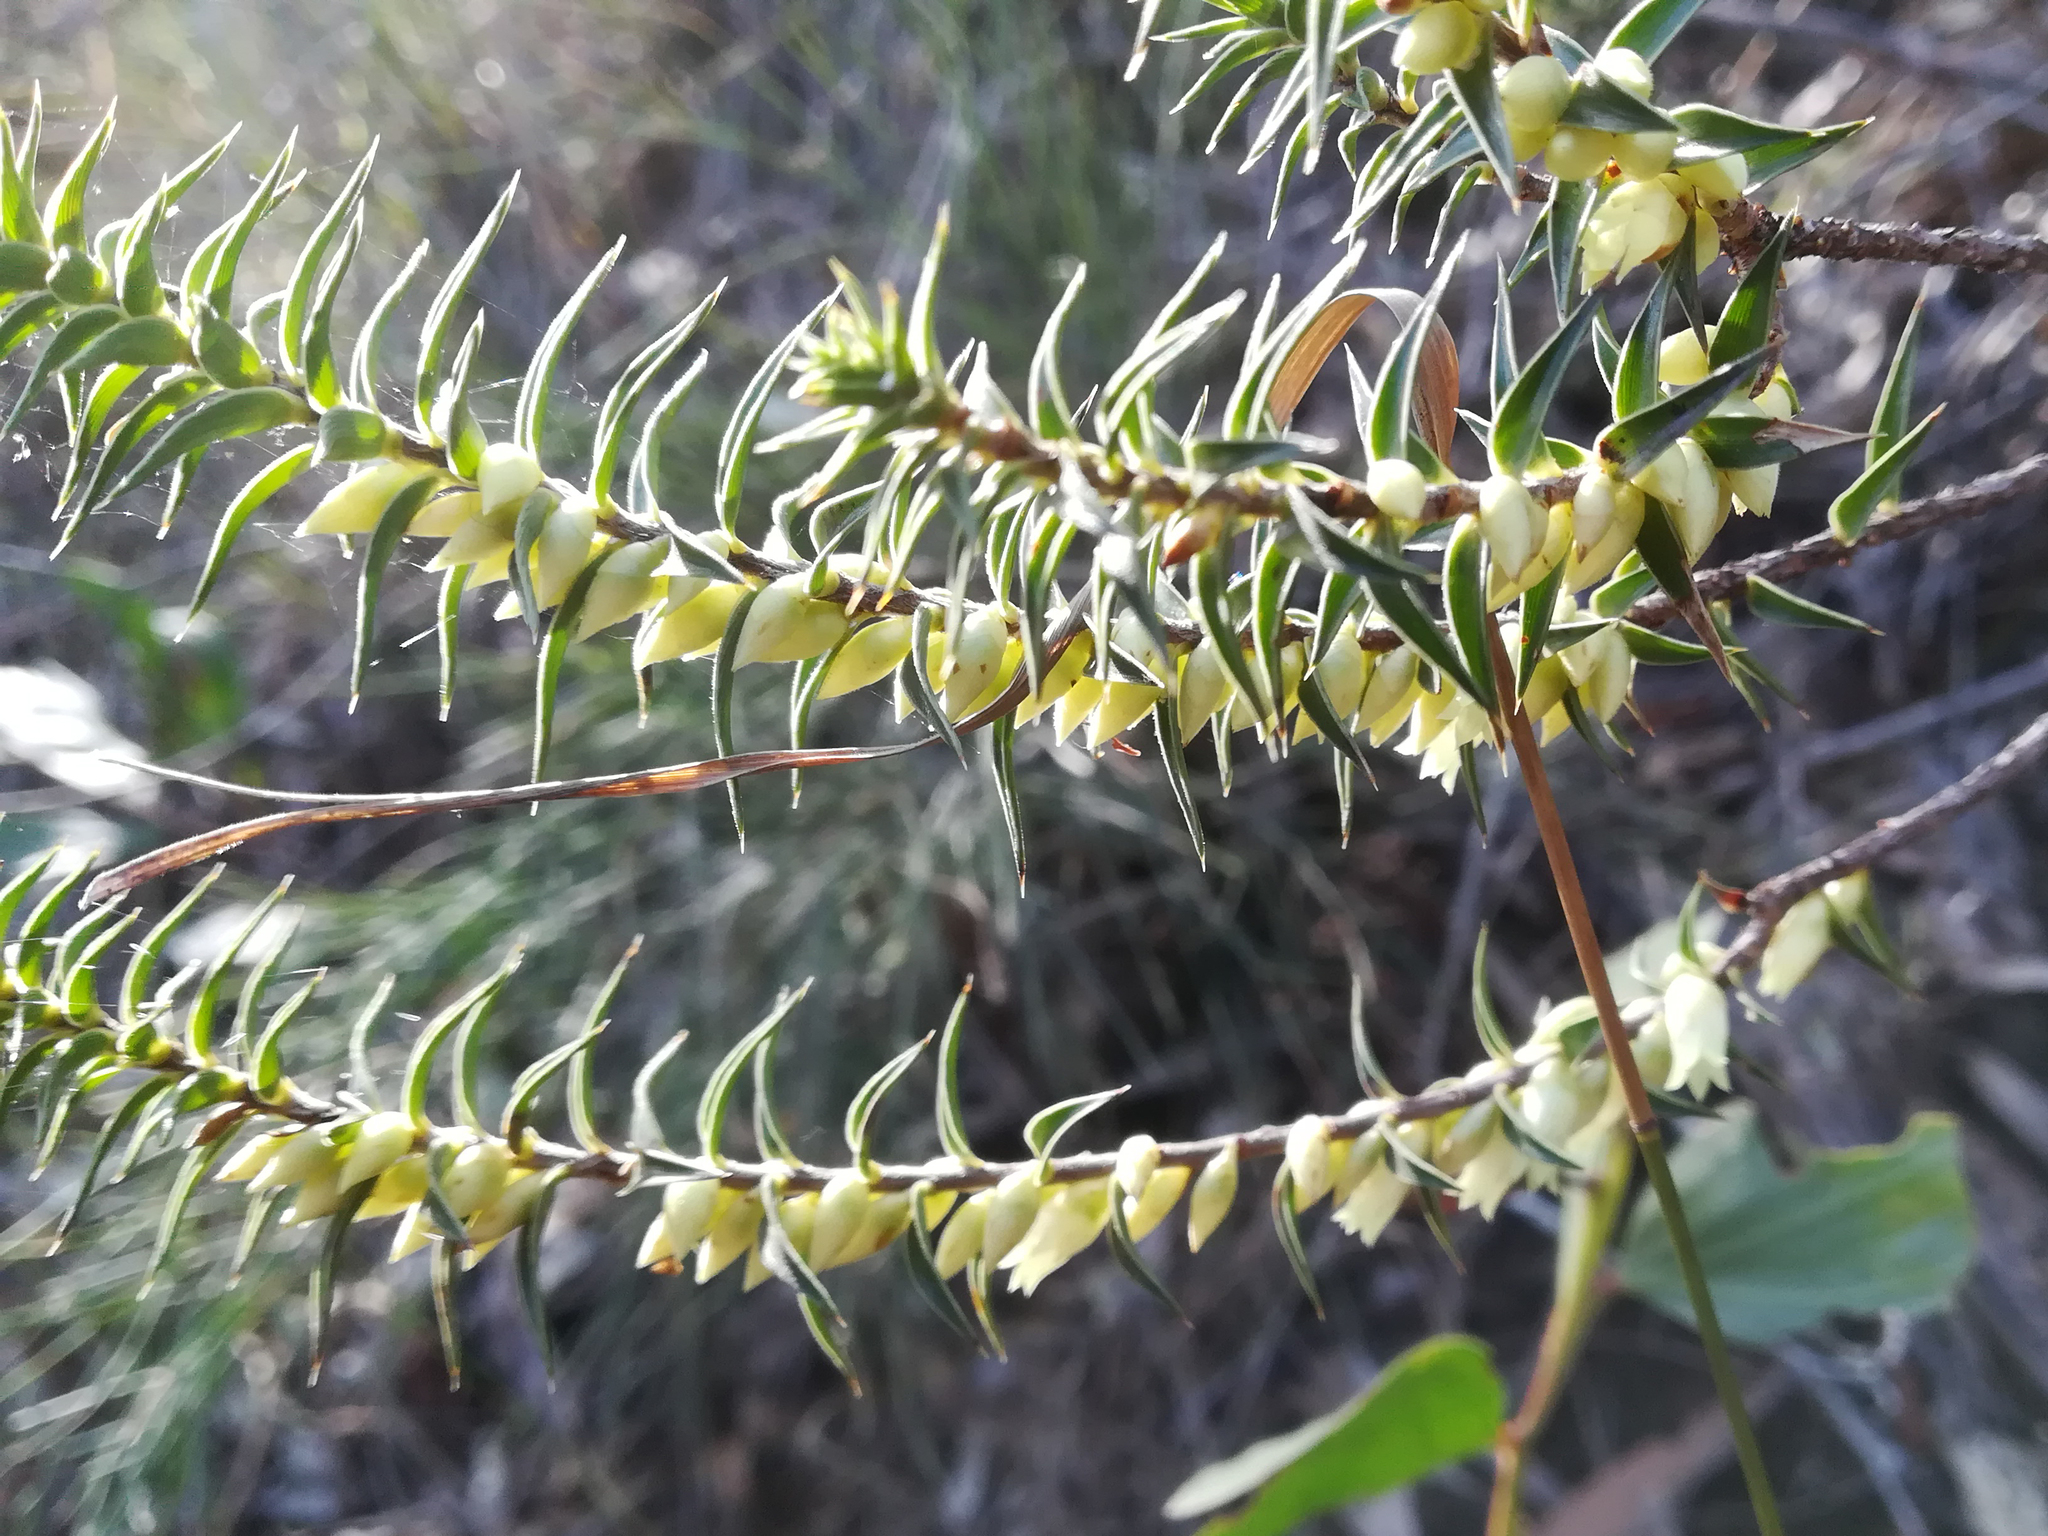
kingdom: Plantae
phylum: Tracheophyta
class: Magnoliopsida
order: Ericales
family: Ericaceae
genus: Melichrus
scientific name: Melichrus urceolatus
